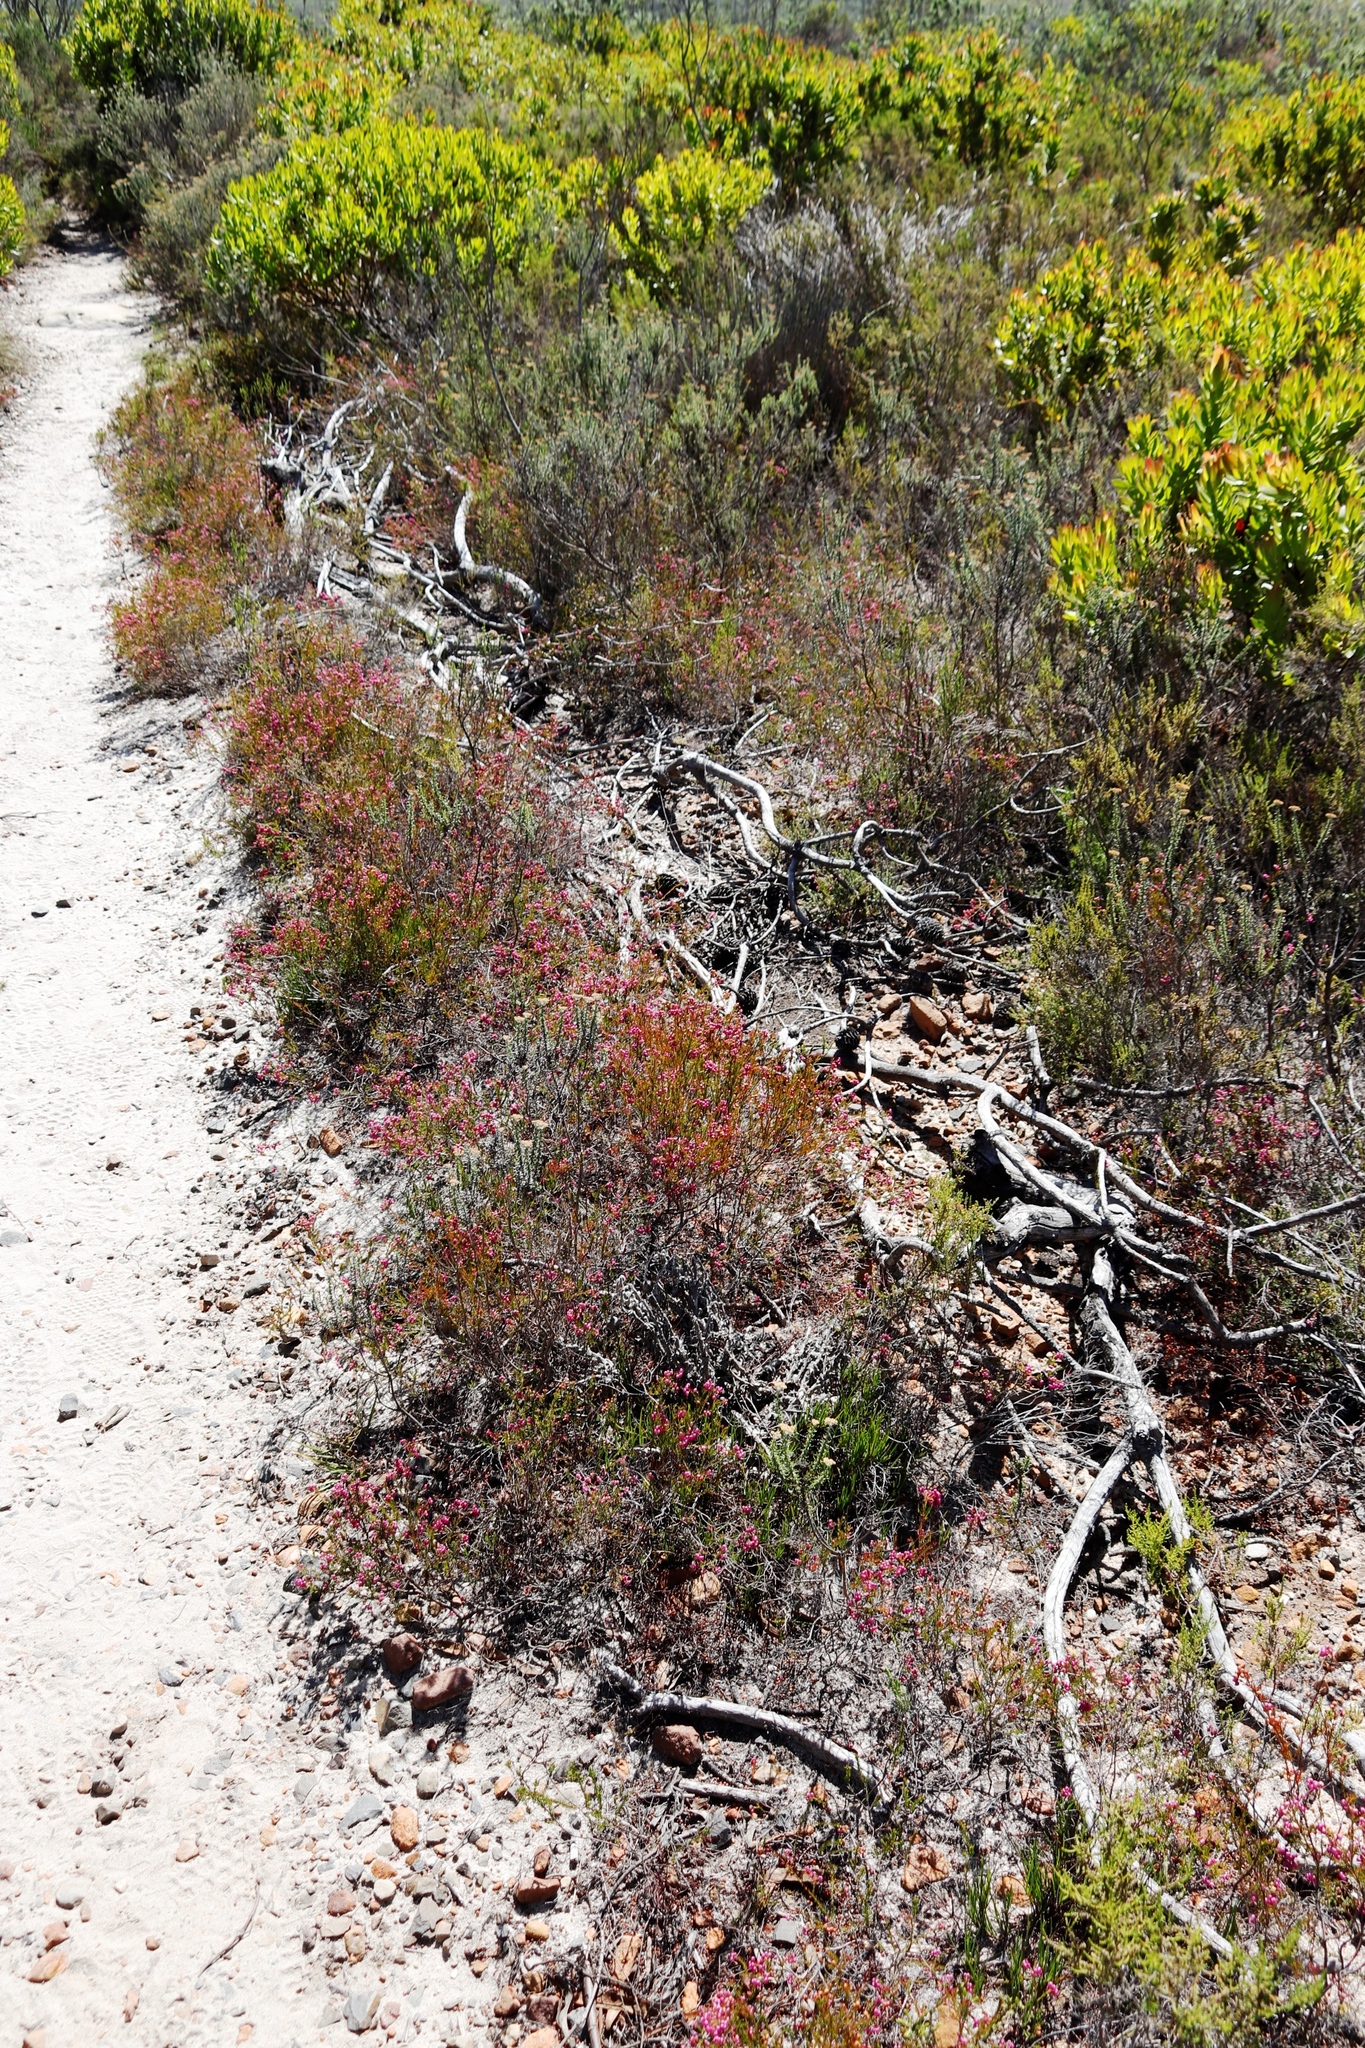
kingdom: Plantae
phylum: Tracheophyta
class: Magnoliopsida
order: Ericales
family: Ericaceae
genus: Erica
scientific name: Erica multumbellifera
